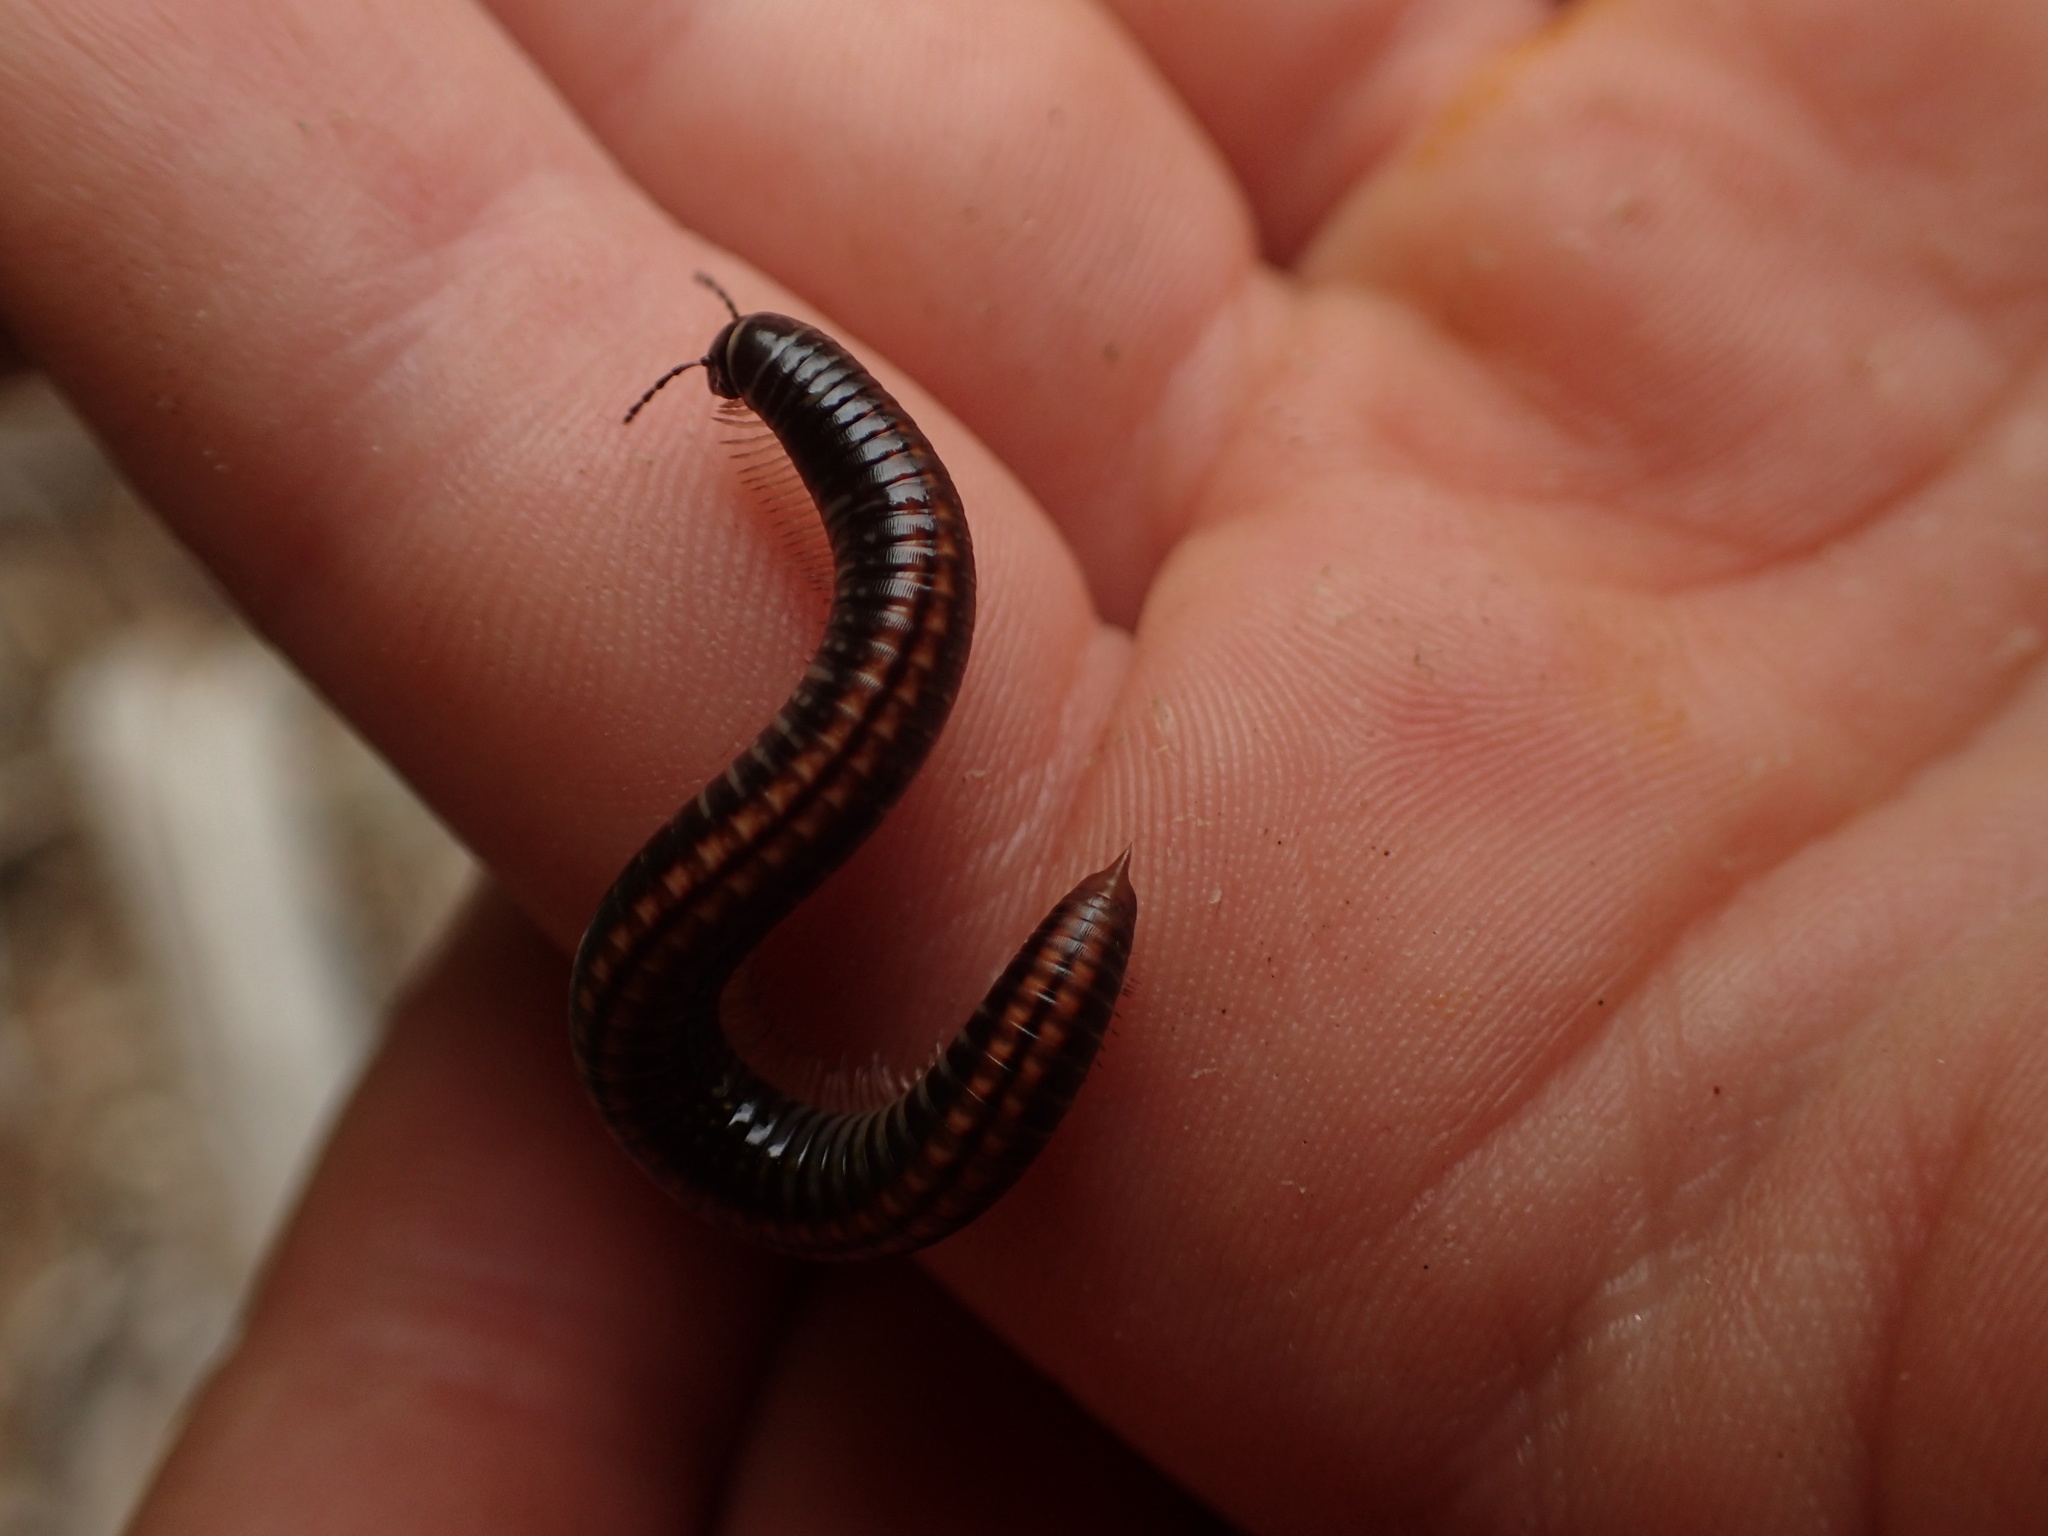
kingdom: Animalia
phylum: Arthropoda
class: Diplopoda
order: Julida
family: Julidae
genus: Ommatoiulus
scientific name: Ommatoiulus sabulosus
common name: Striped millipede
